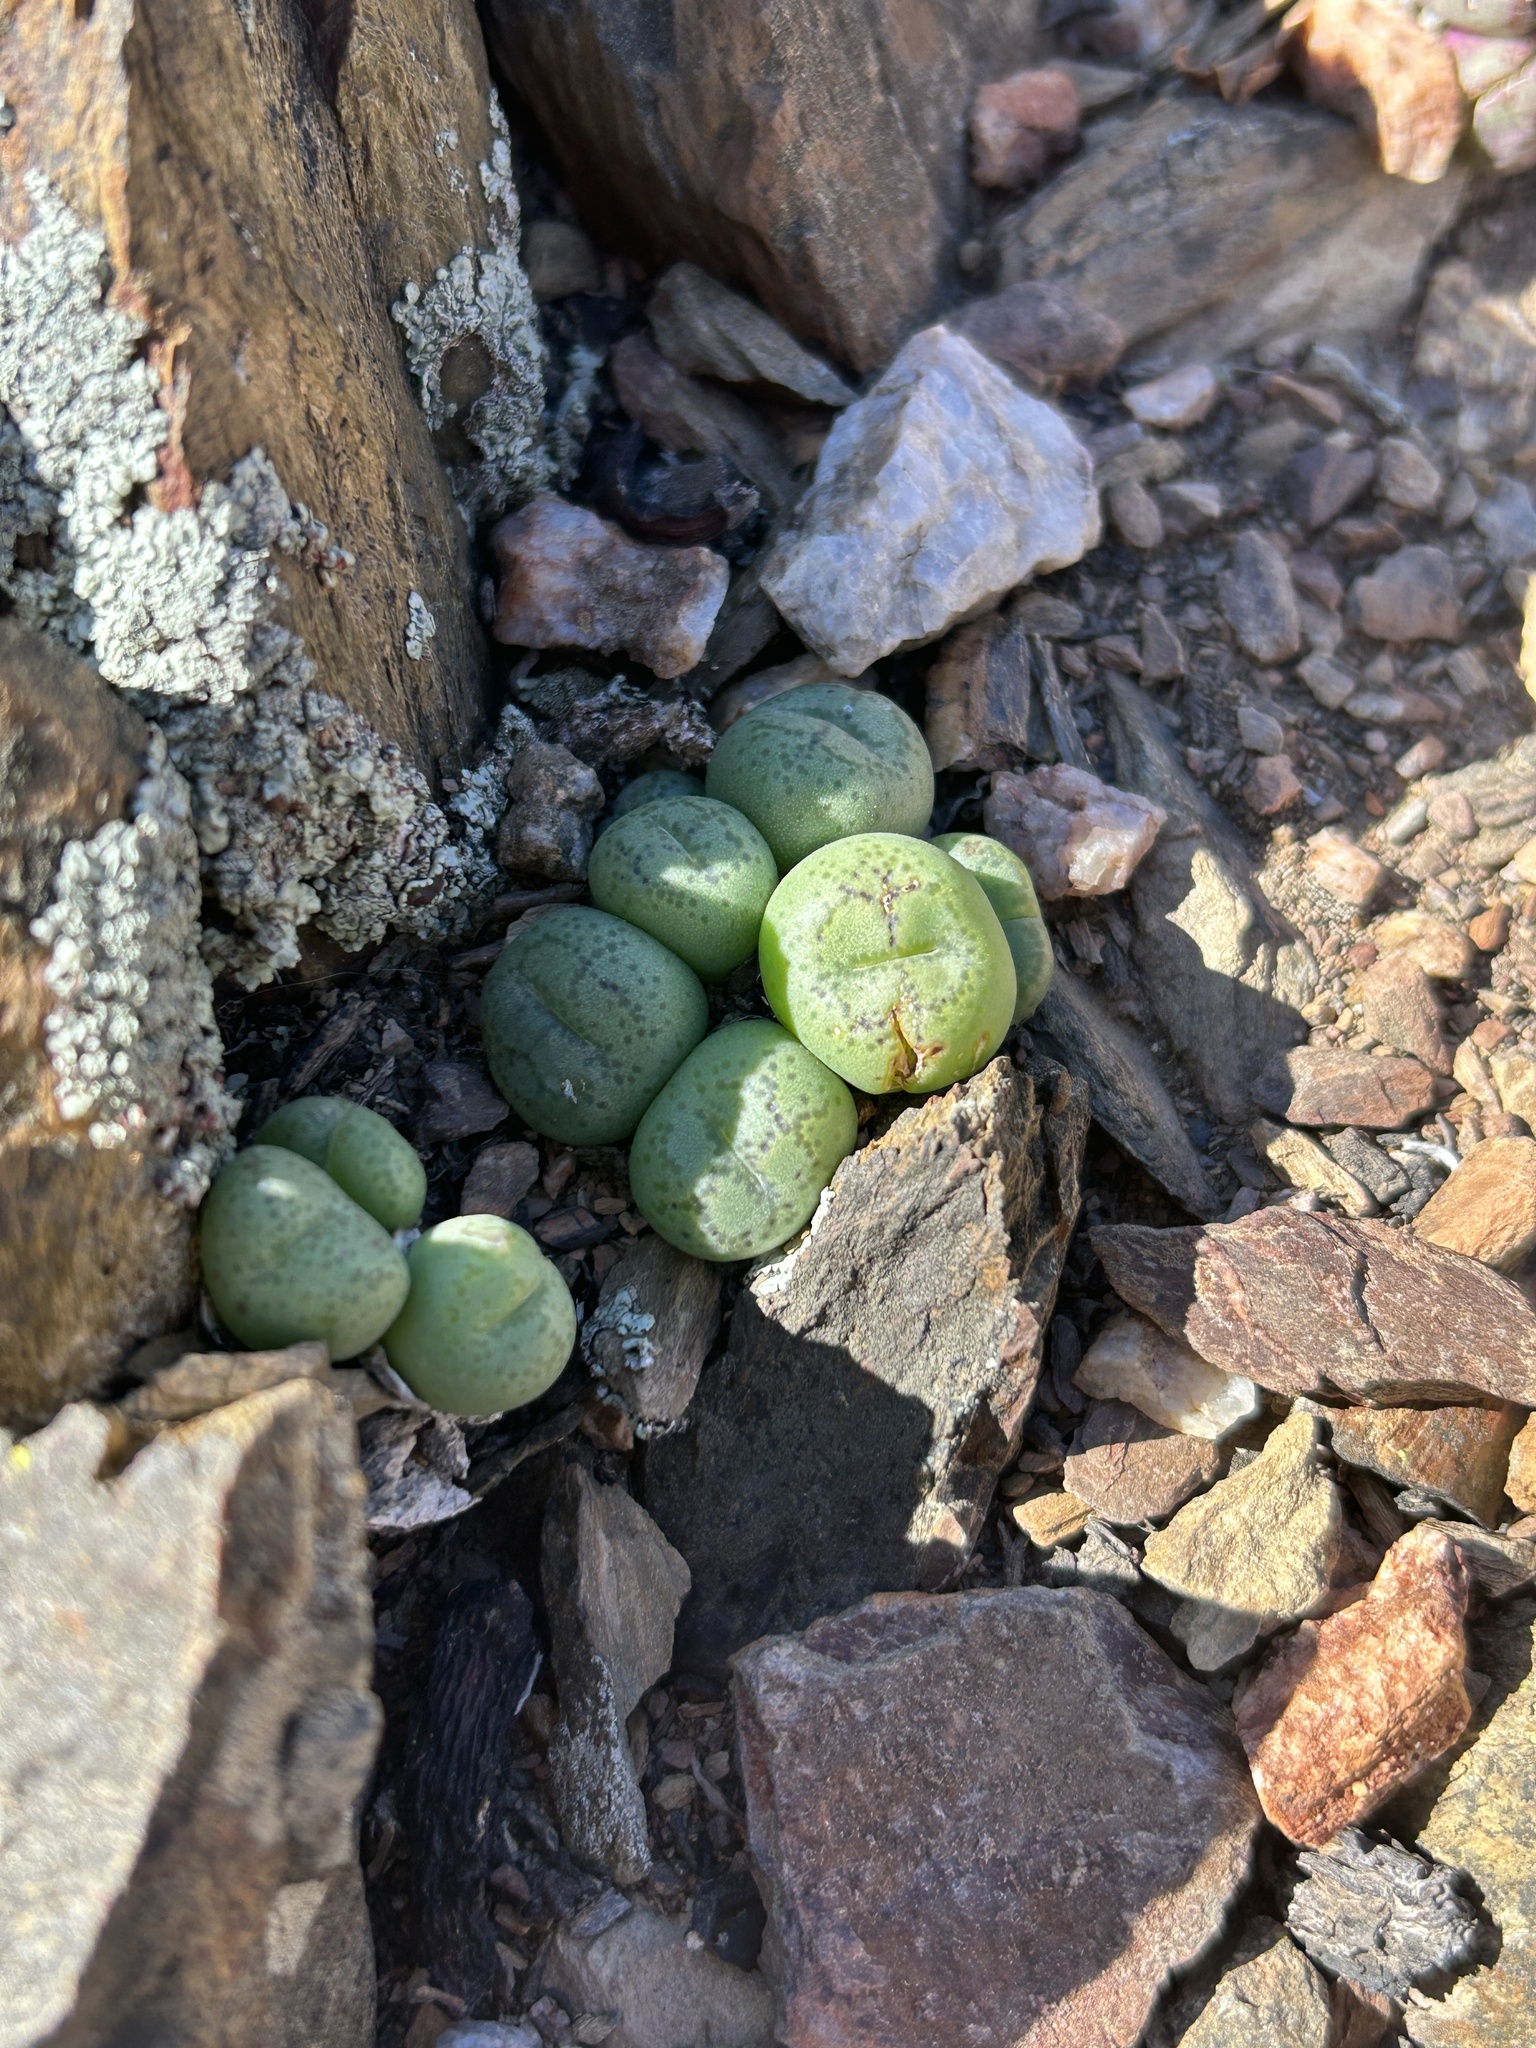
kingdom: Plantae
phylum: Tracheophyta
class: Magnoliopsida
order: Caryophyllales
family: Aizoaceae
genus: Conophytum
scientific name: Conophytum ficiforme
